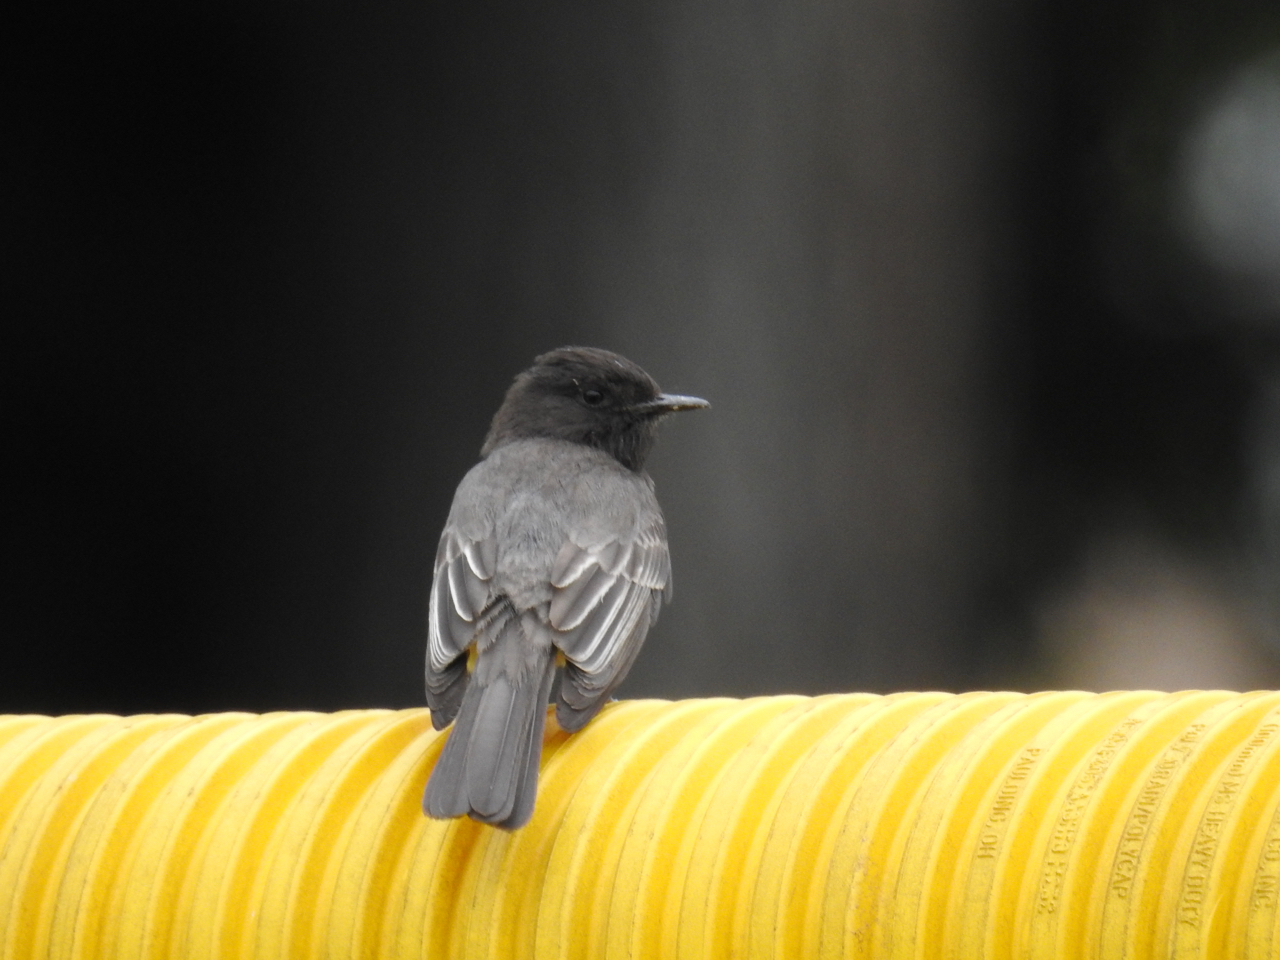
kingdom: Animalia
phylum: Chordata
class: Aves
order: Passeriformes
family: Tyrannidae
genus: Sayornis
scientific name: Sayornis nigricans
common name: Black phoebe
